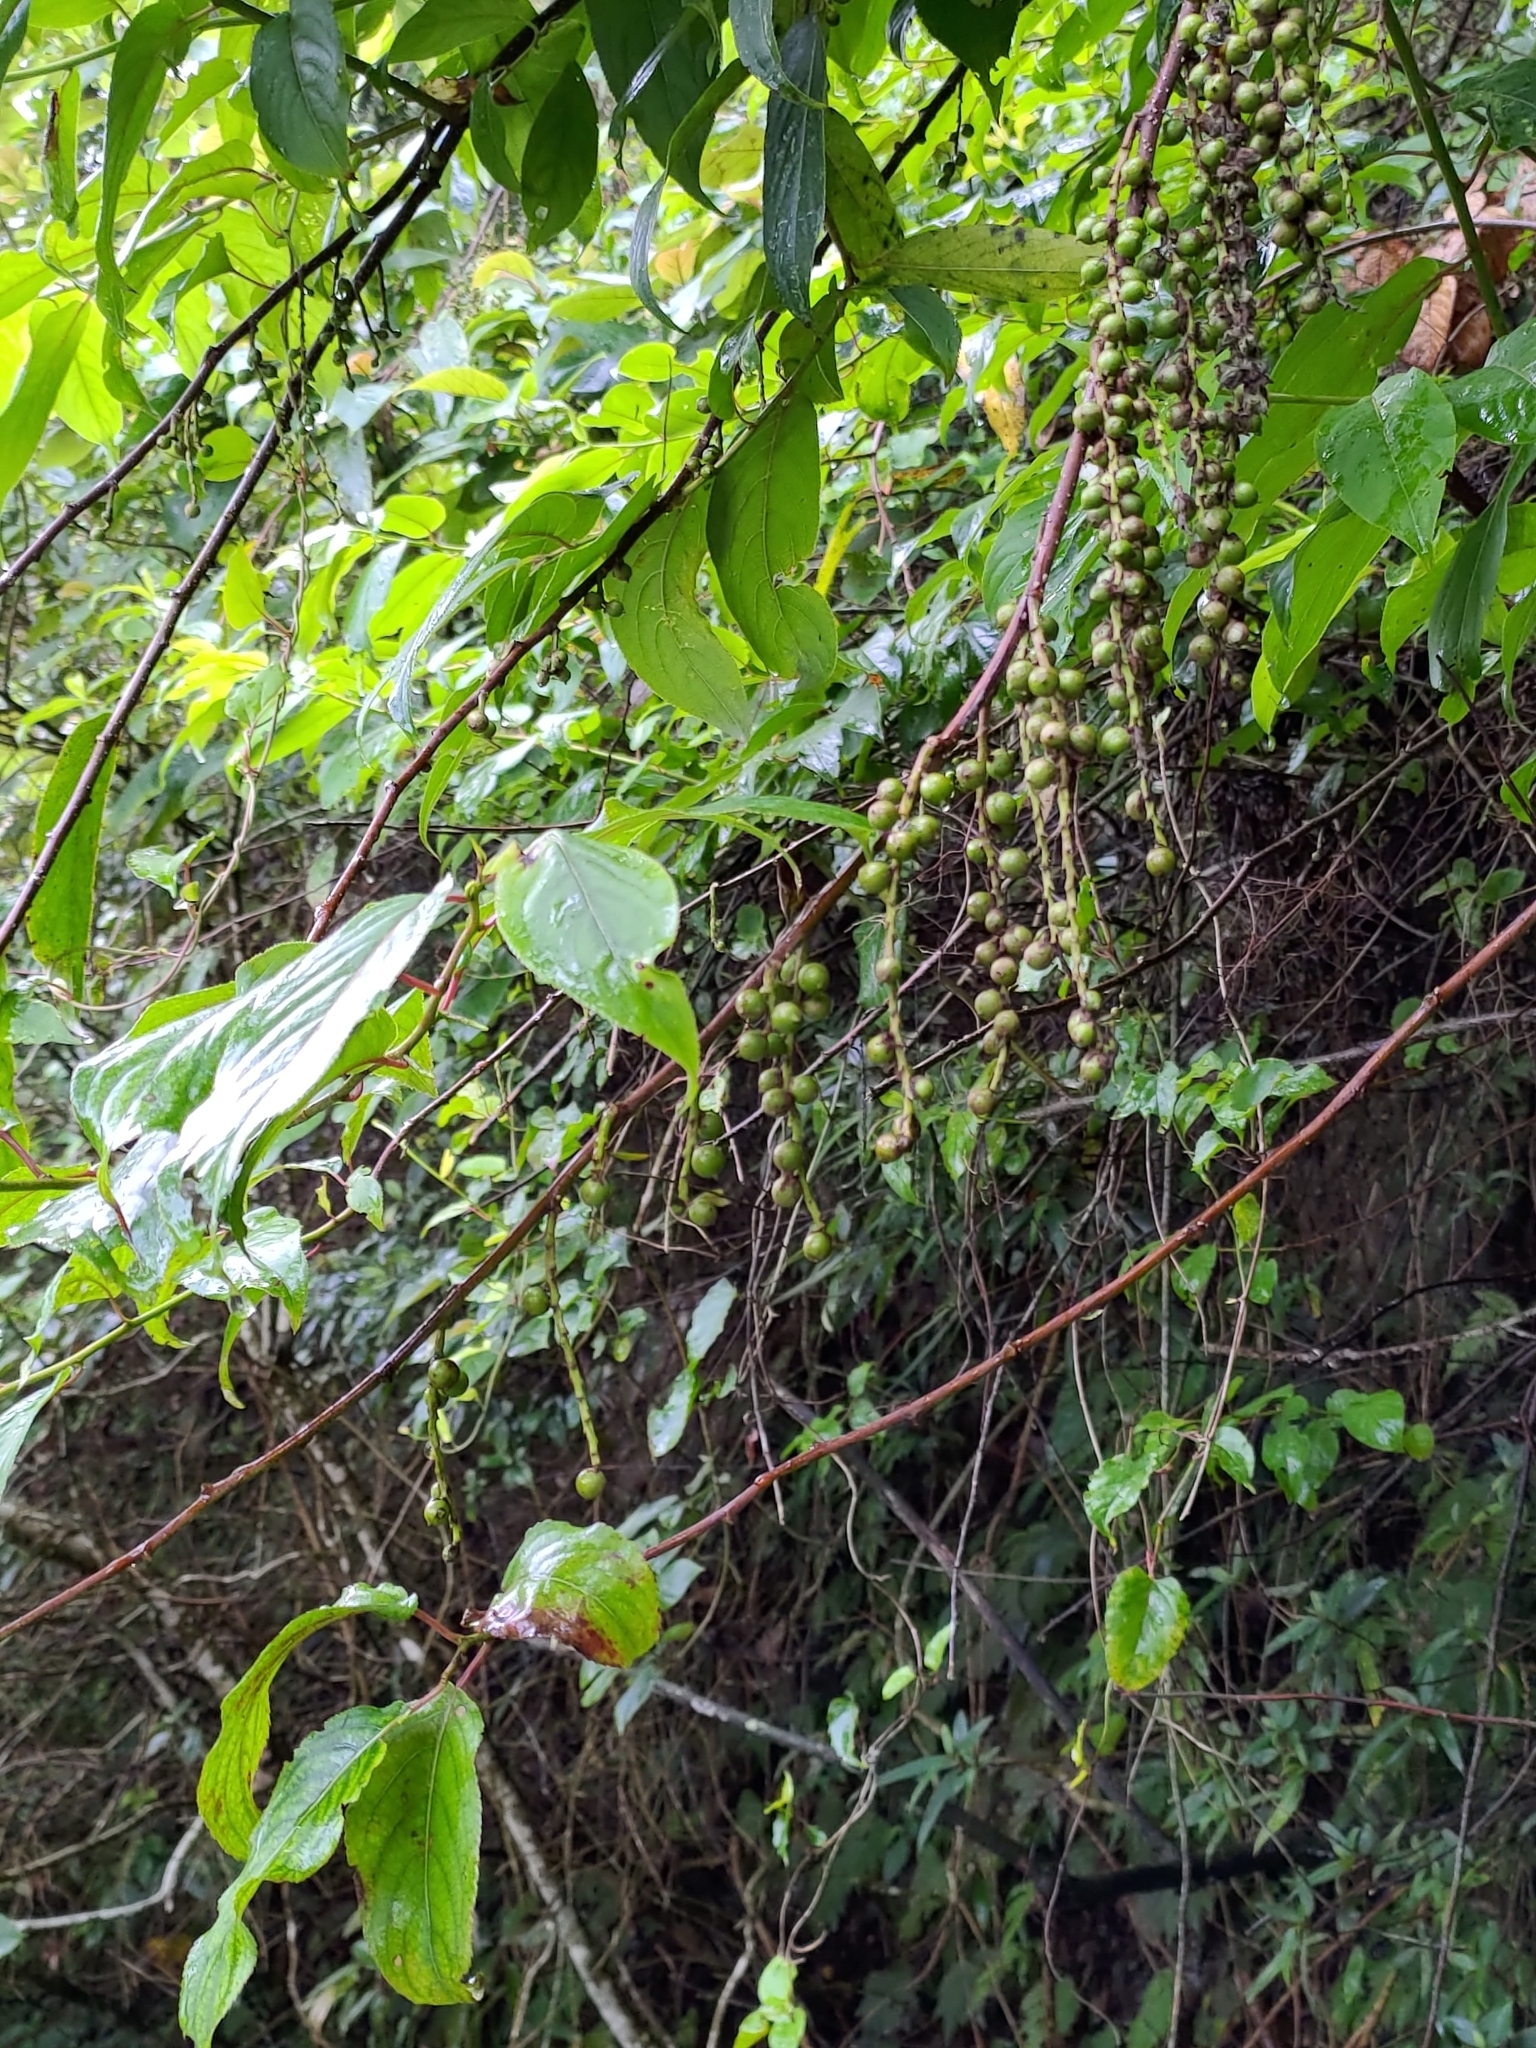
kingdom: Plantae
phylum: Tracheophyta
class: Magnoliopsida
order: Crossosomatales
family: Stachyuraceae
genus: Stachyurus
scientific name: Stachyurus himalaicus
